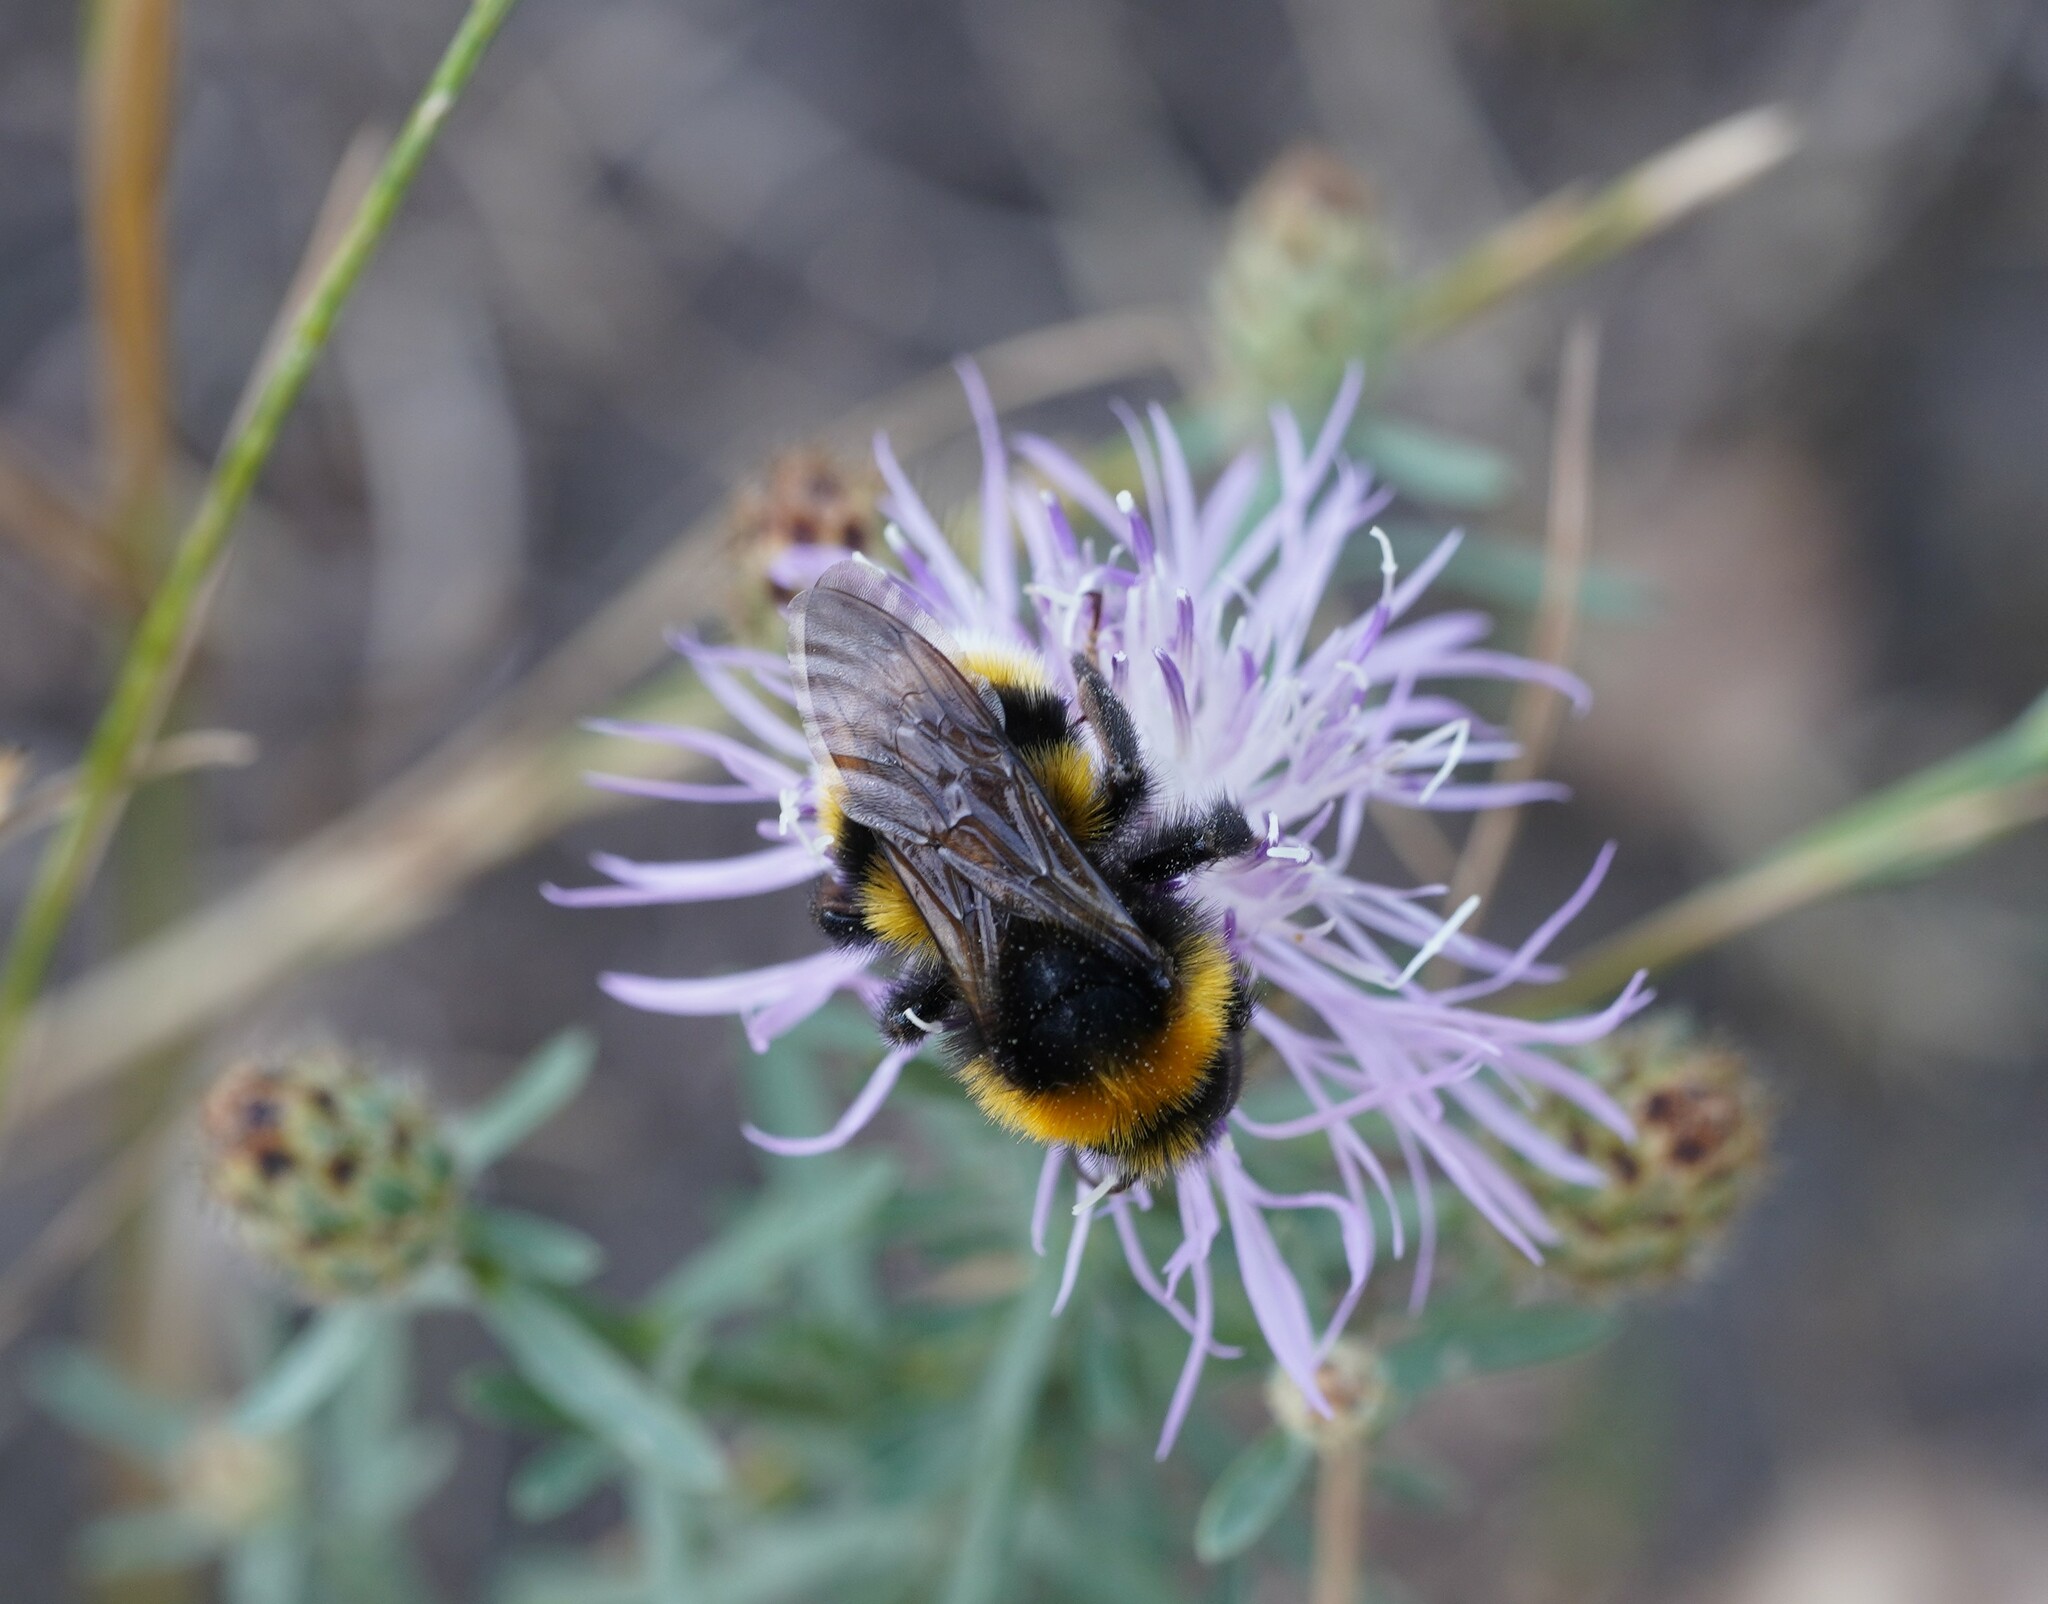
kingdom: Animalia
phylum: Arthropoda
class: Insecta
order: Hymenoptera
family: Apidae
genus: Bombus
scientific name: Bombus vestalis
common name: Vestal cuckoo bee
